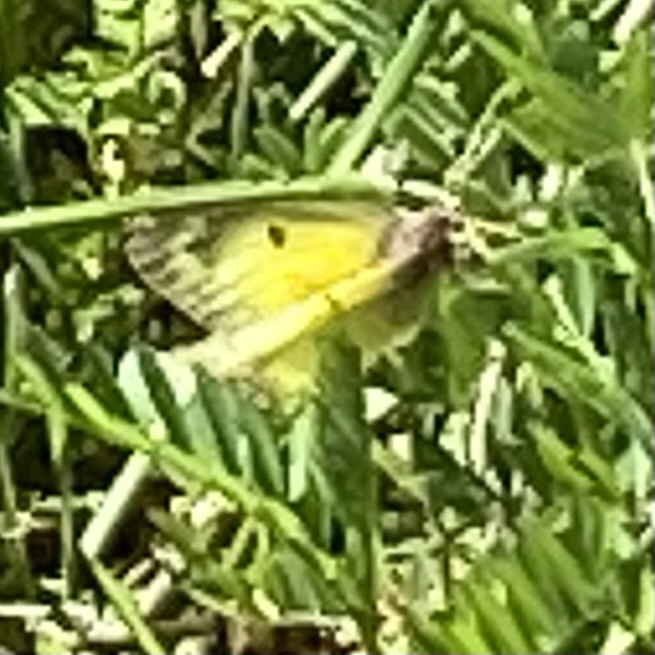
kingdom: Animalia
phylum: Arthropoda
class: Insecta
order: Lepidoptera
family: Pieridae
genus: Colias
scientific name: Colias eurytheme
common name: Alfalfa butterfly
